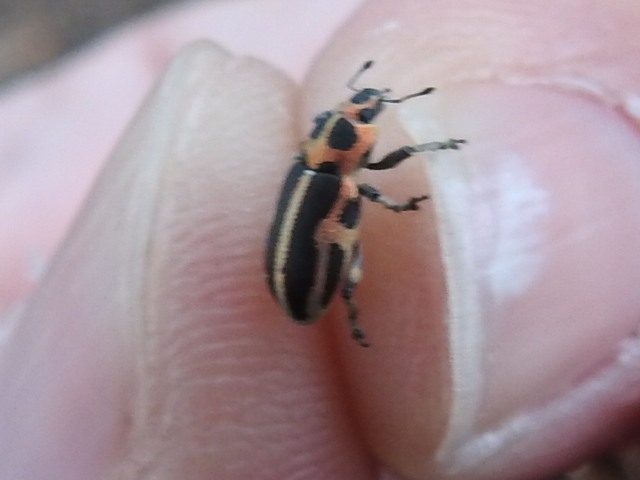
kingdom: Animalia
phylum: Arthropoda
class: Insecta
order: Coleoptera
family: Curculionidae
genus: Eudiagogus
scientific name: Eudiagogus pulcher
